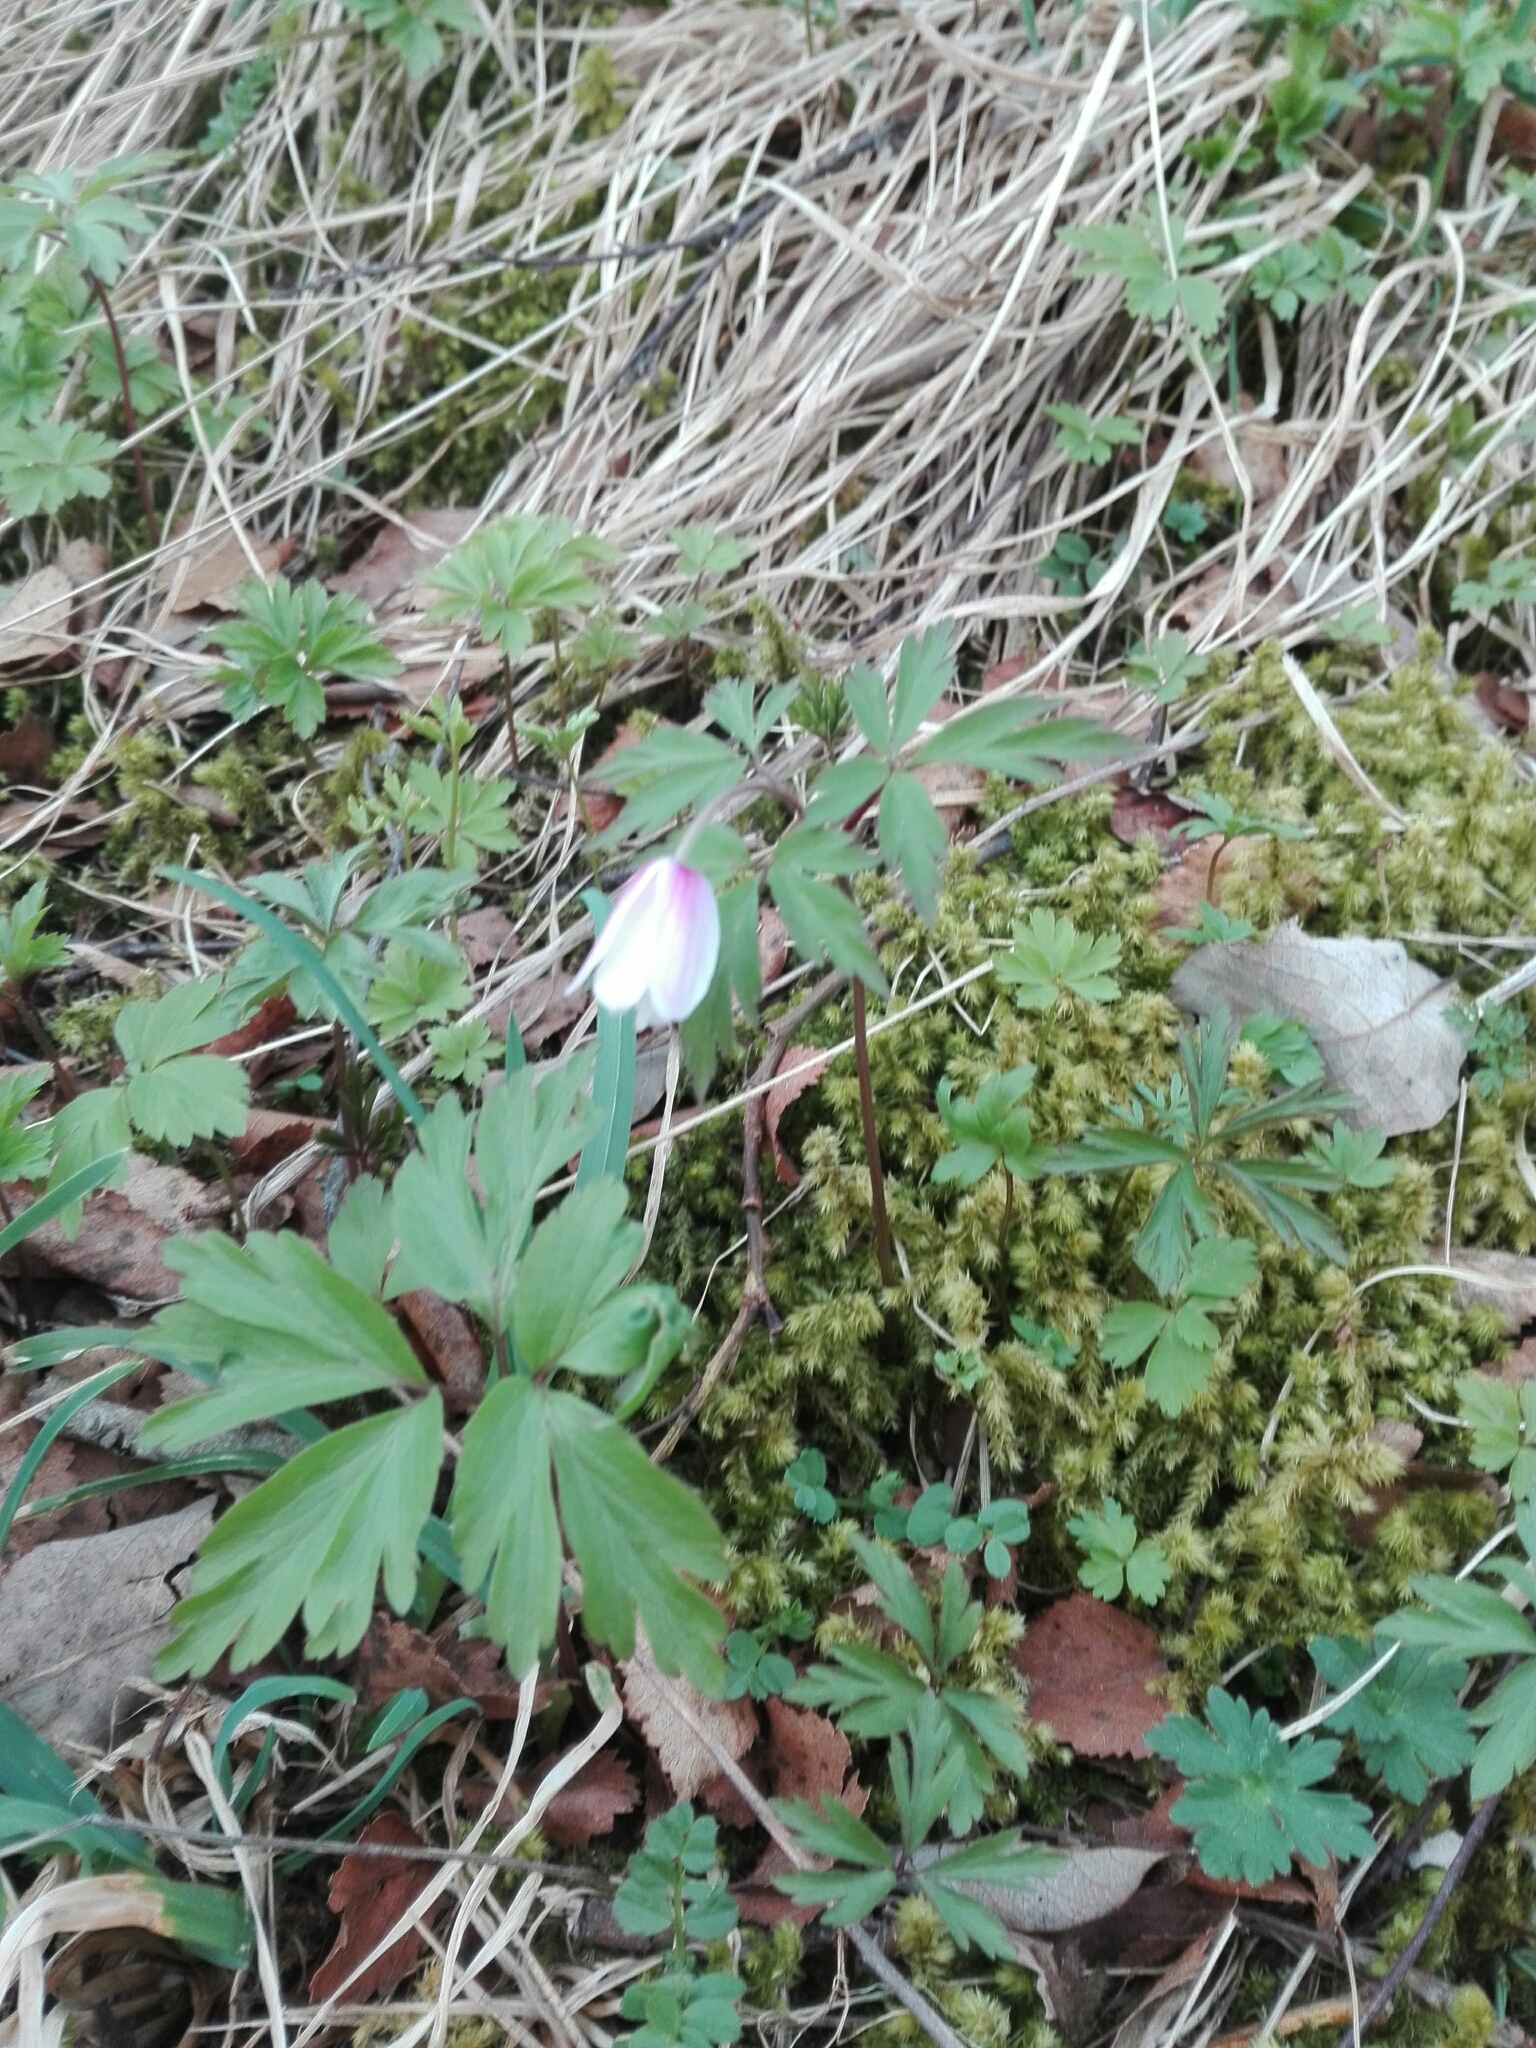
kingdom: Plantae
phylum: Tracheophyta
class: Magnoliopsida
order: Ranunculales
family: Ranunculaceae
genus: Anemone
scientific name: Anemone nemorosa
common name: Wood anemone
